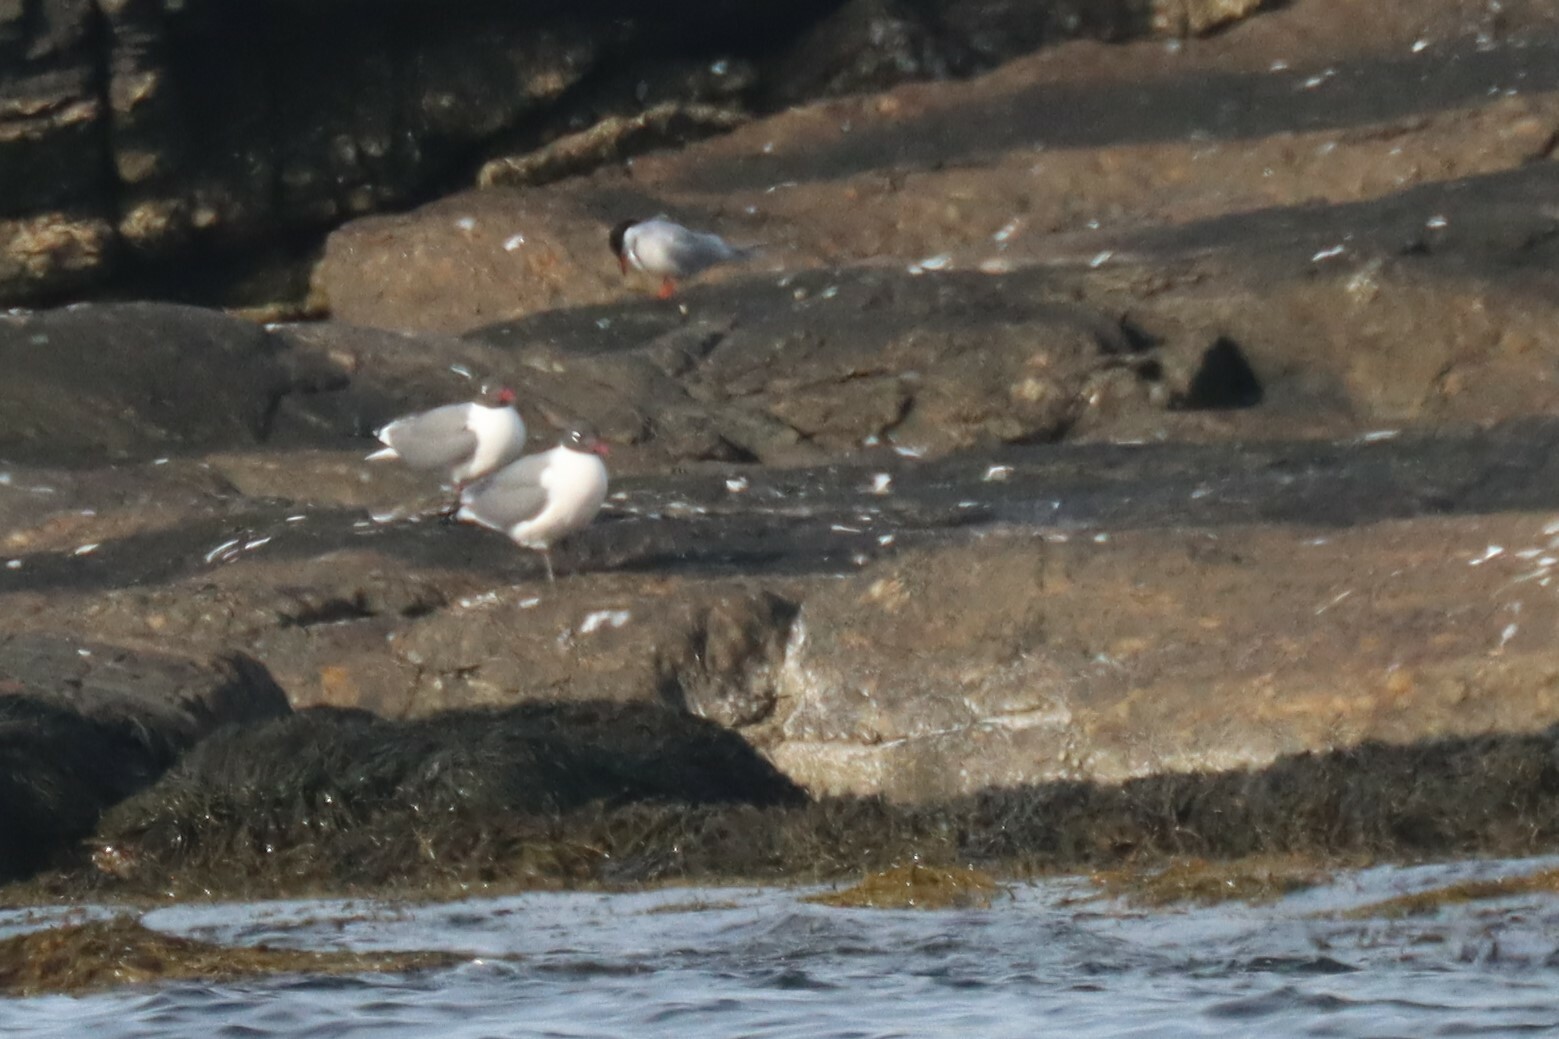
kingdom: Animalia
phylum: Chordata
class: Aves
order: Charadriiformes
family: Laridae
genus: Leucophaeus
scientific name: Leucophaeus atricilla
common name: Laughing gull
